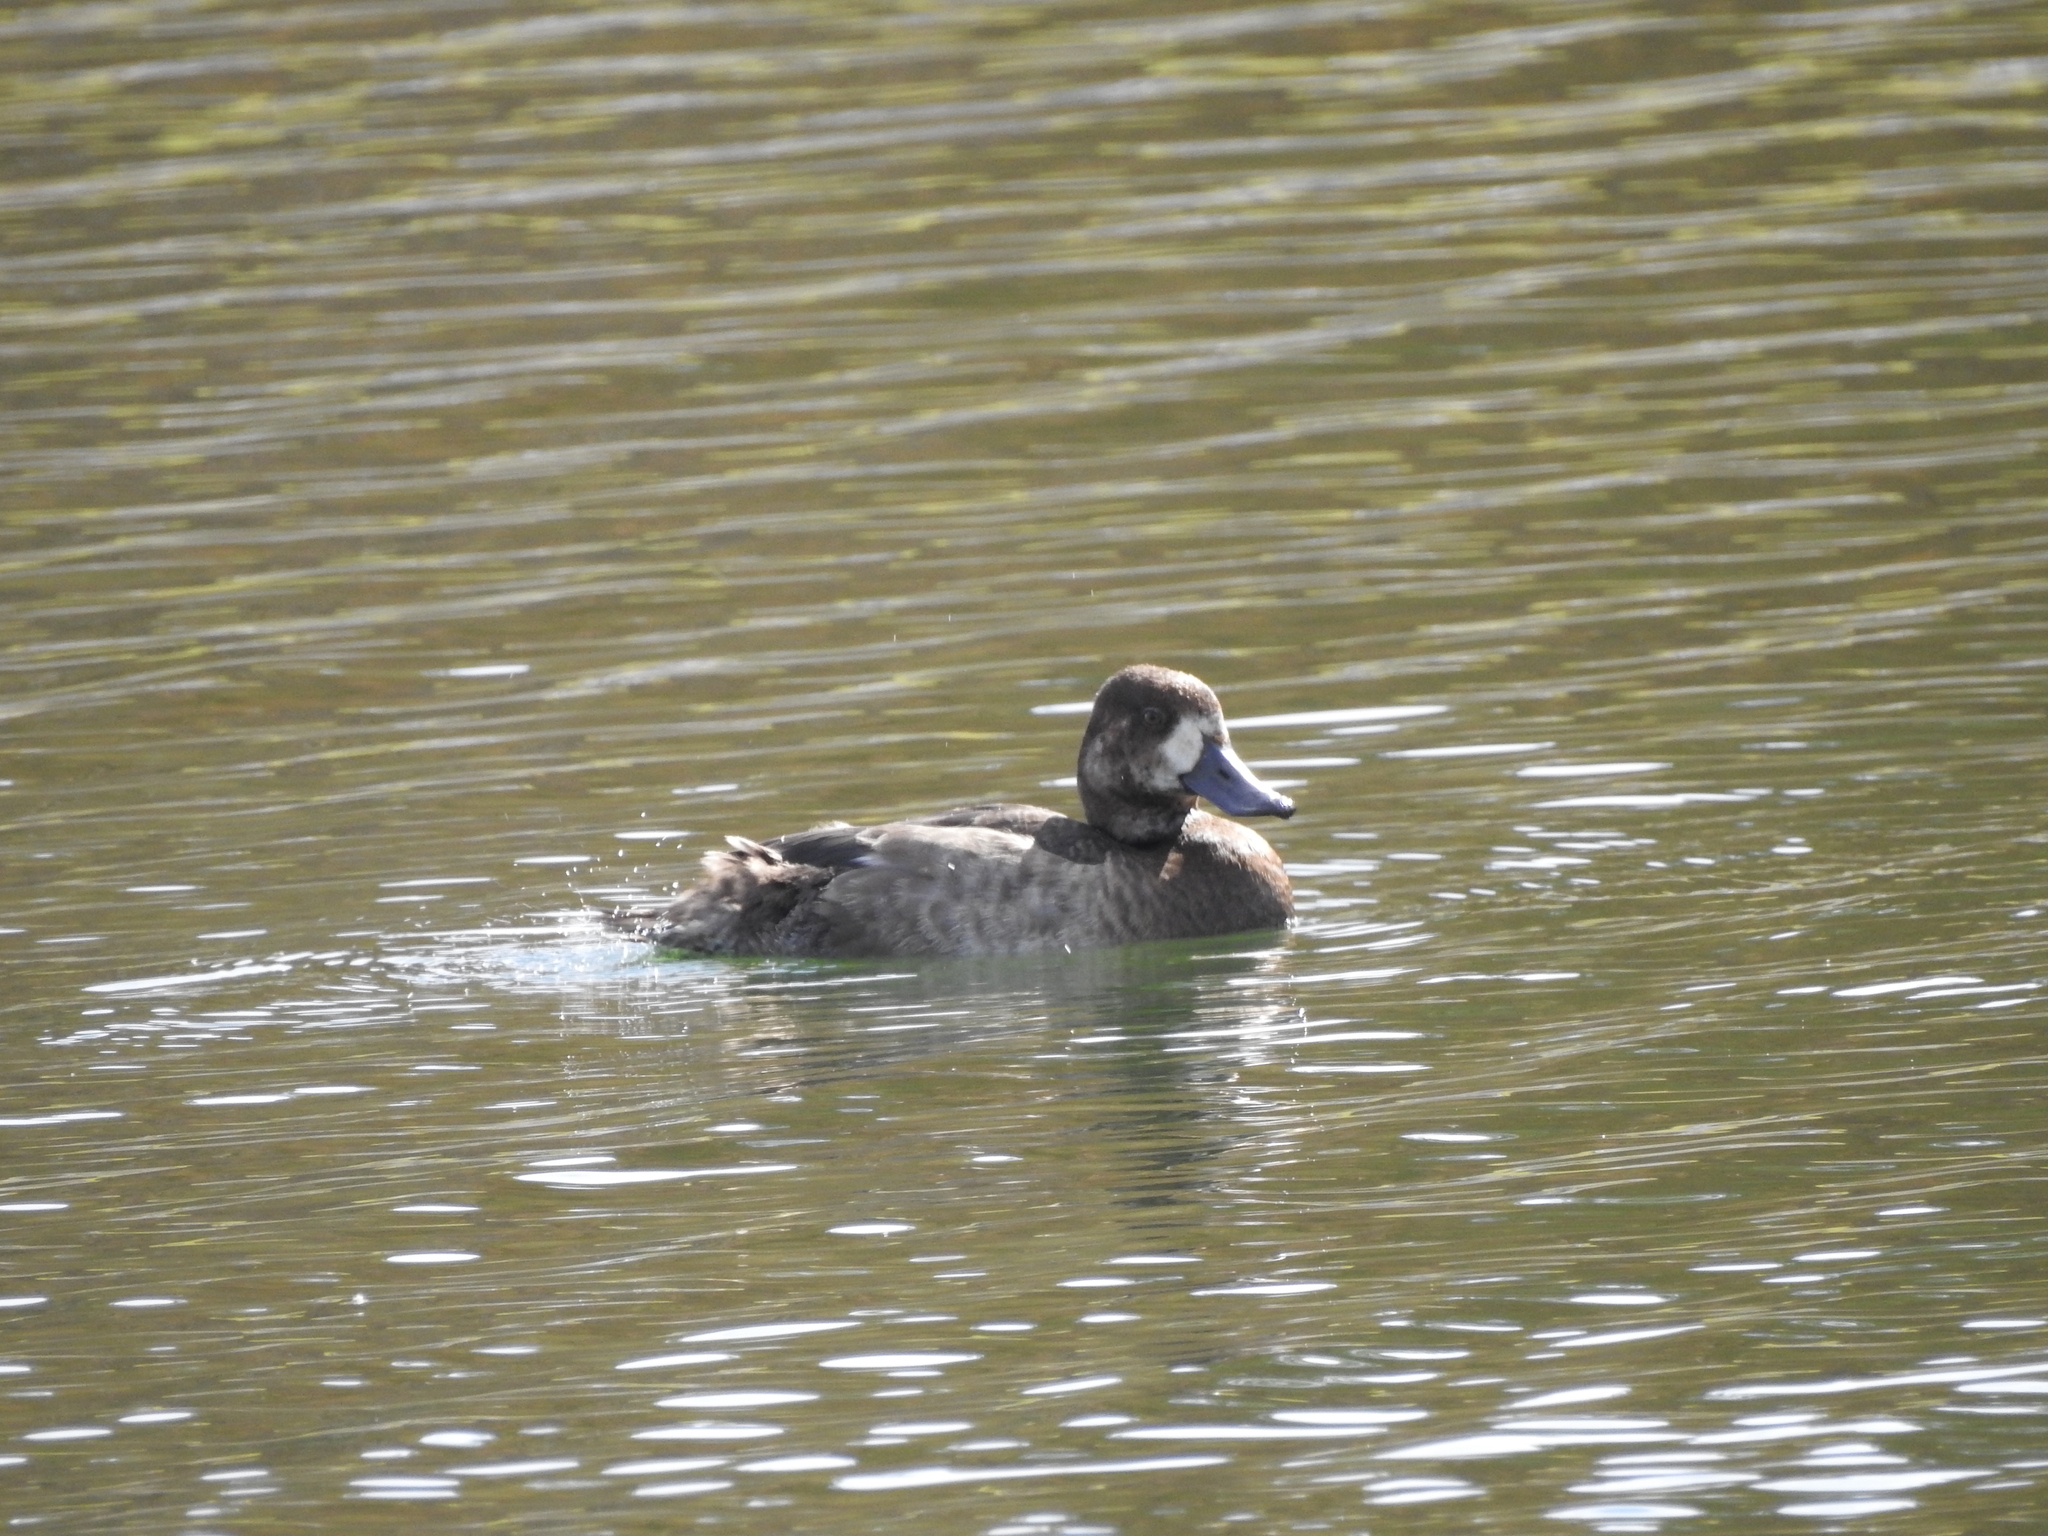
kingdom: Animalia
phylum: Chordata
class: Aves
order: Anseriformes
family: Anatidae
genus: Aythya
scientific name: Aythya marila
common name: Greater scaup
